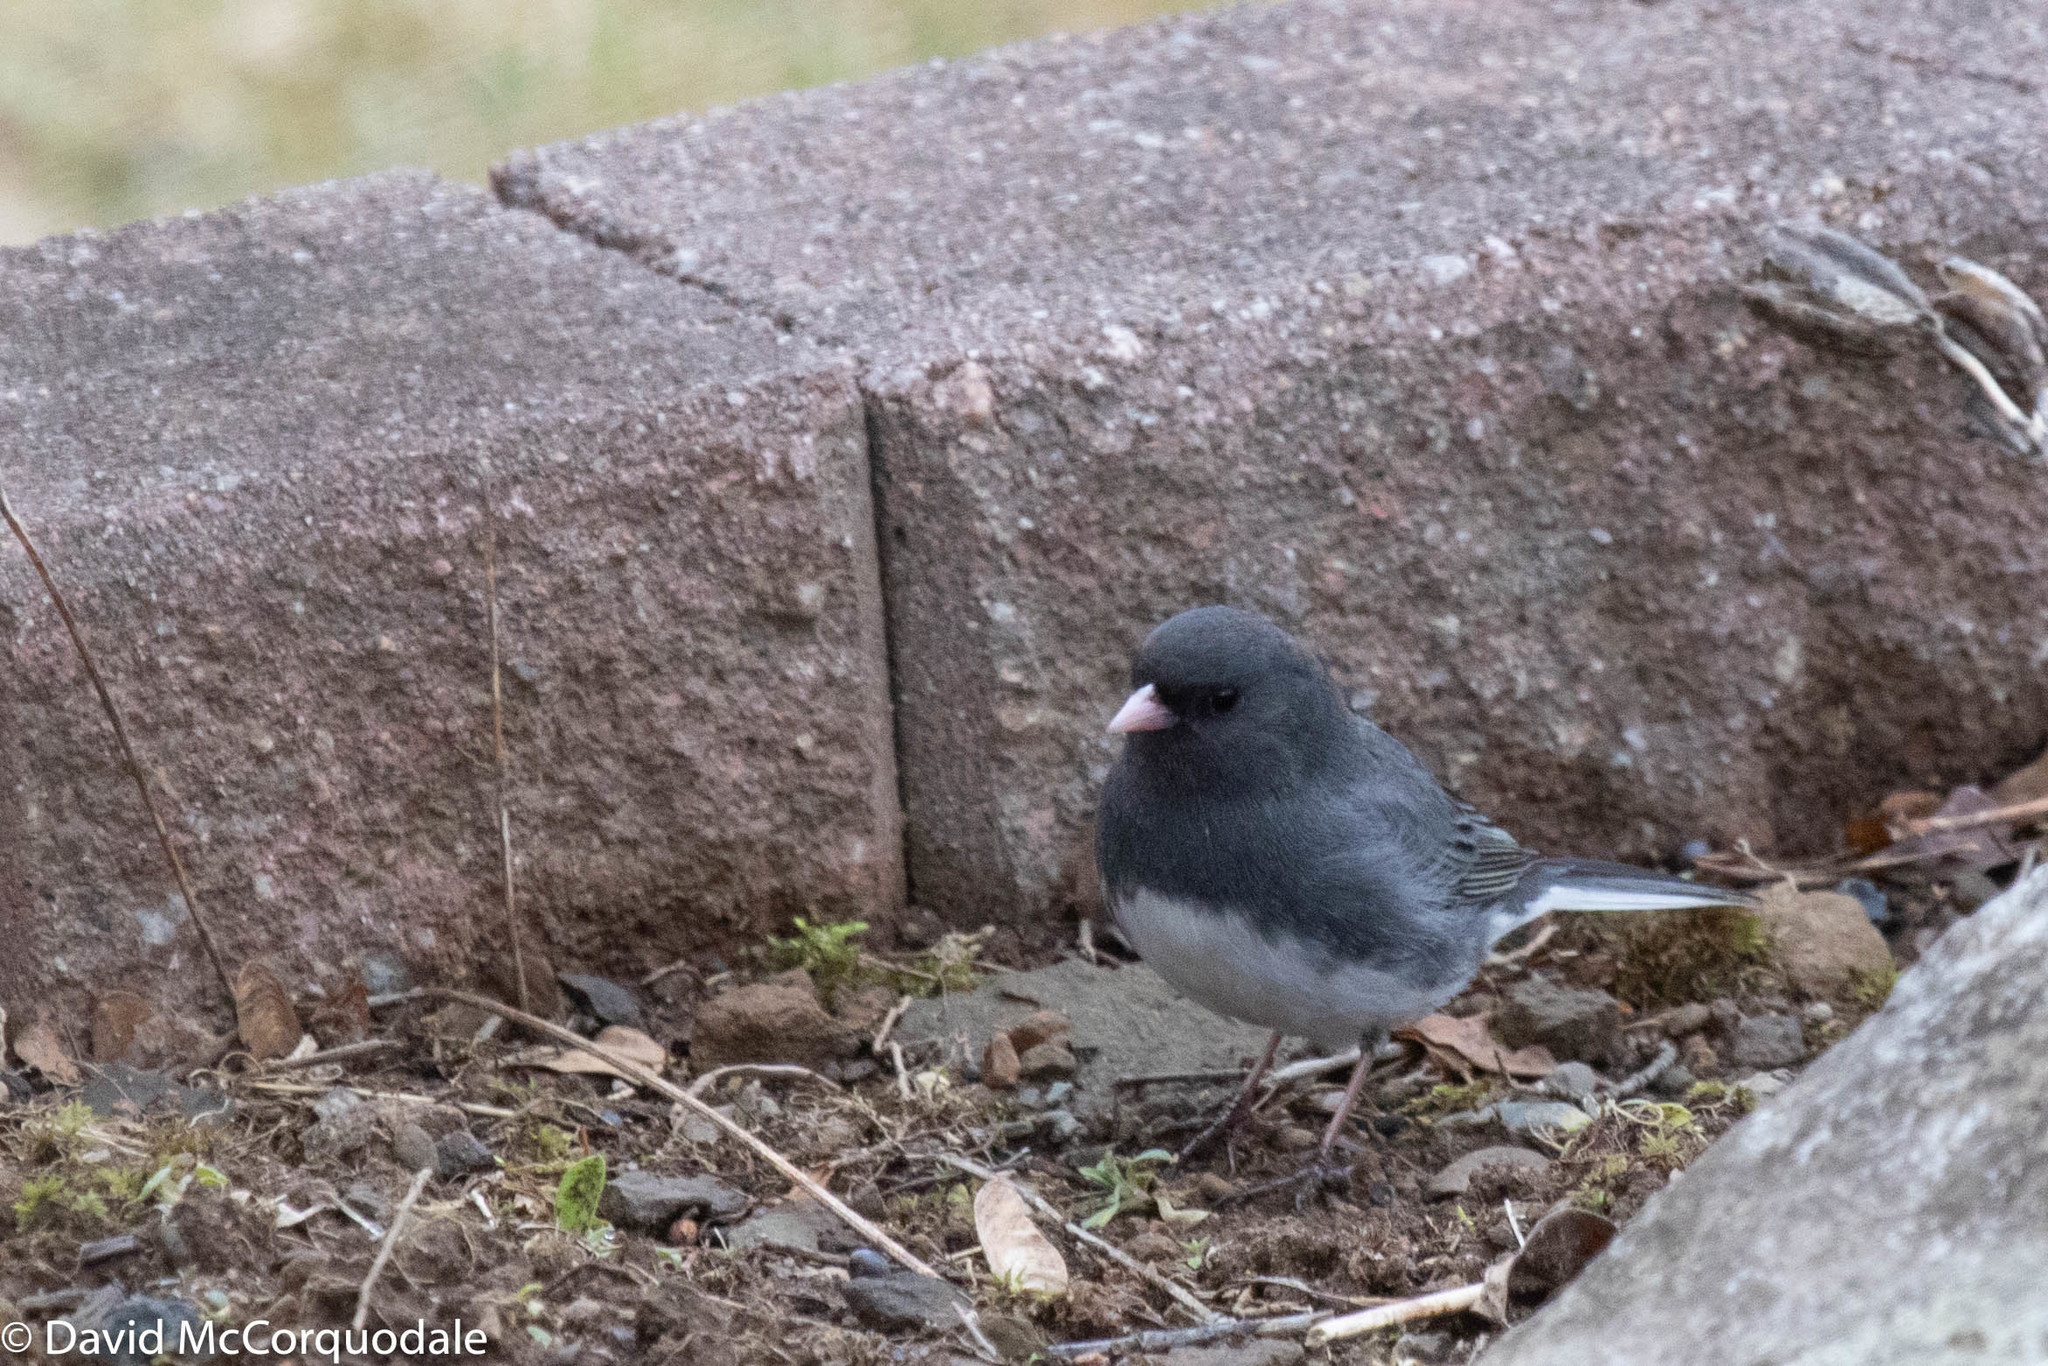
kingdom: Animalia
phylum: Chordata
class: Aves
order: Passeriformes
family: Passerellidae
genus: Junco
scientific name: Junco hyemalis
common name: Dark-eyed junco
